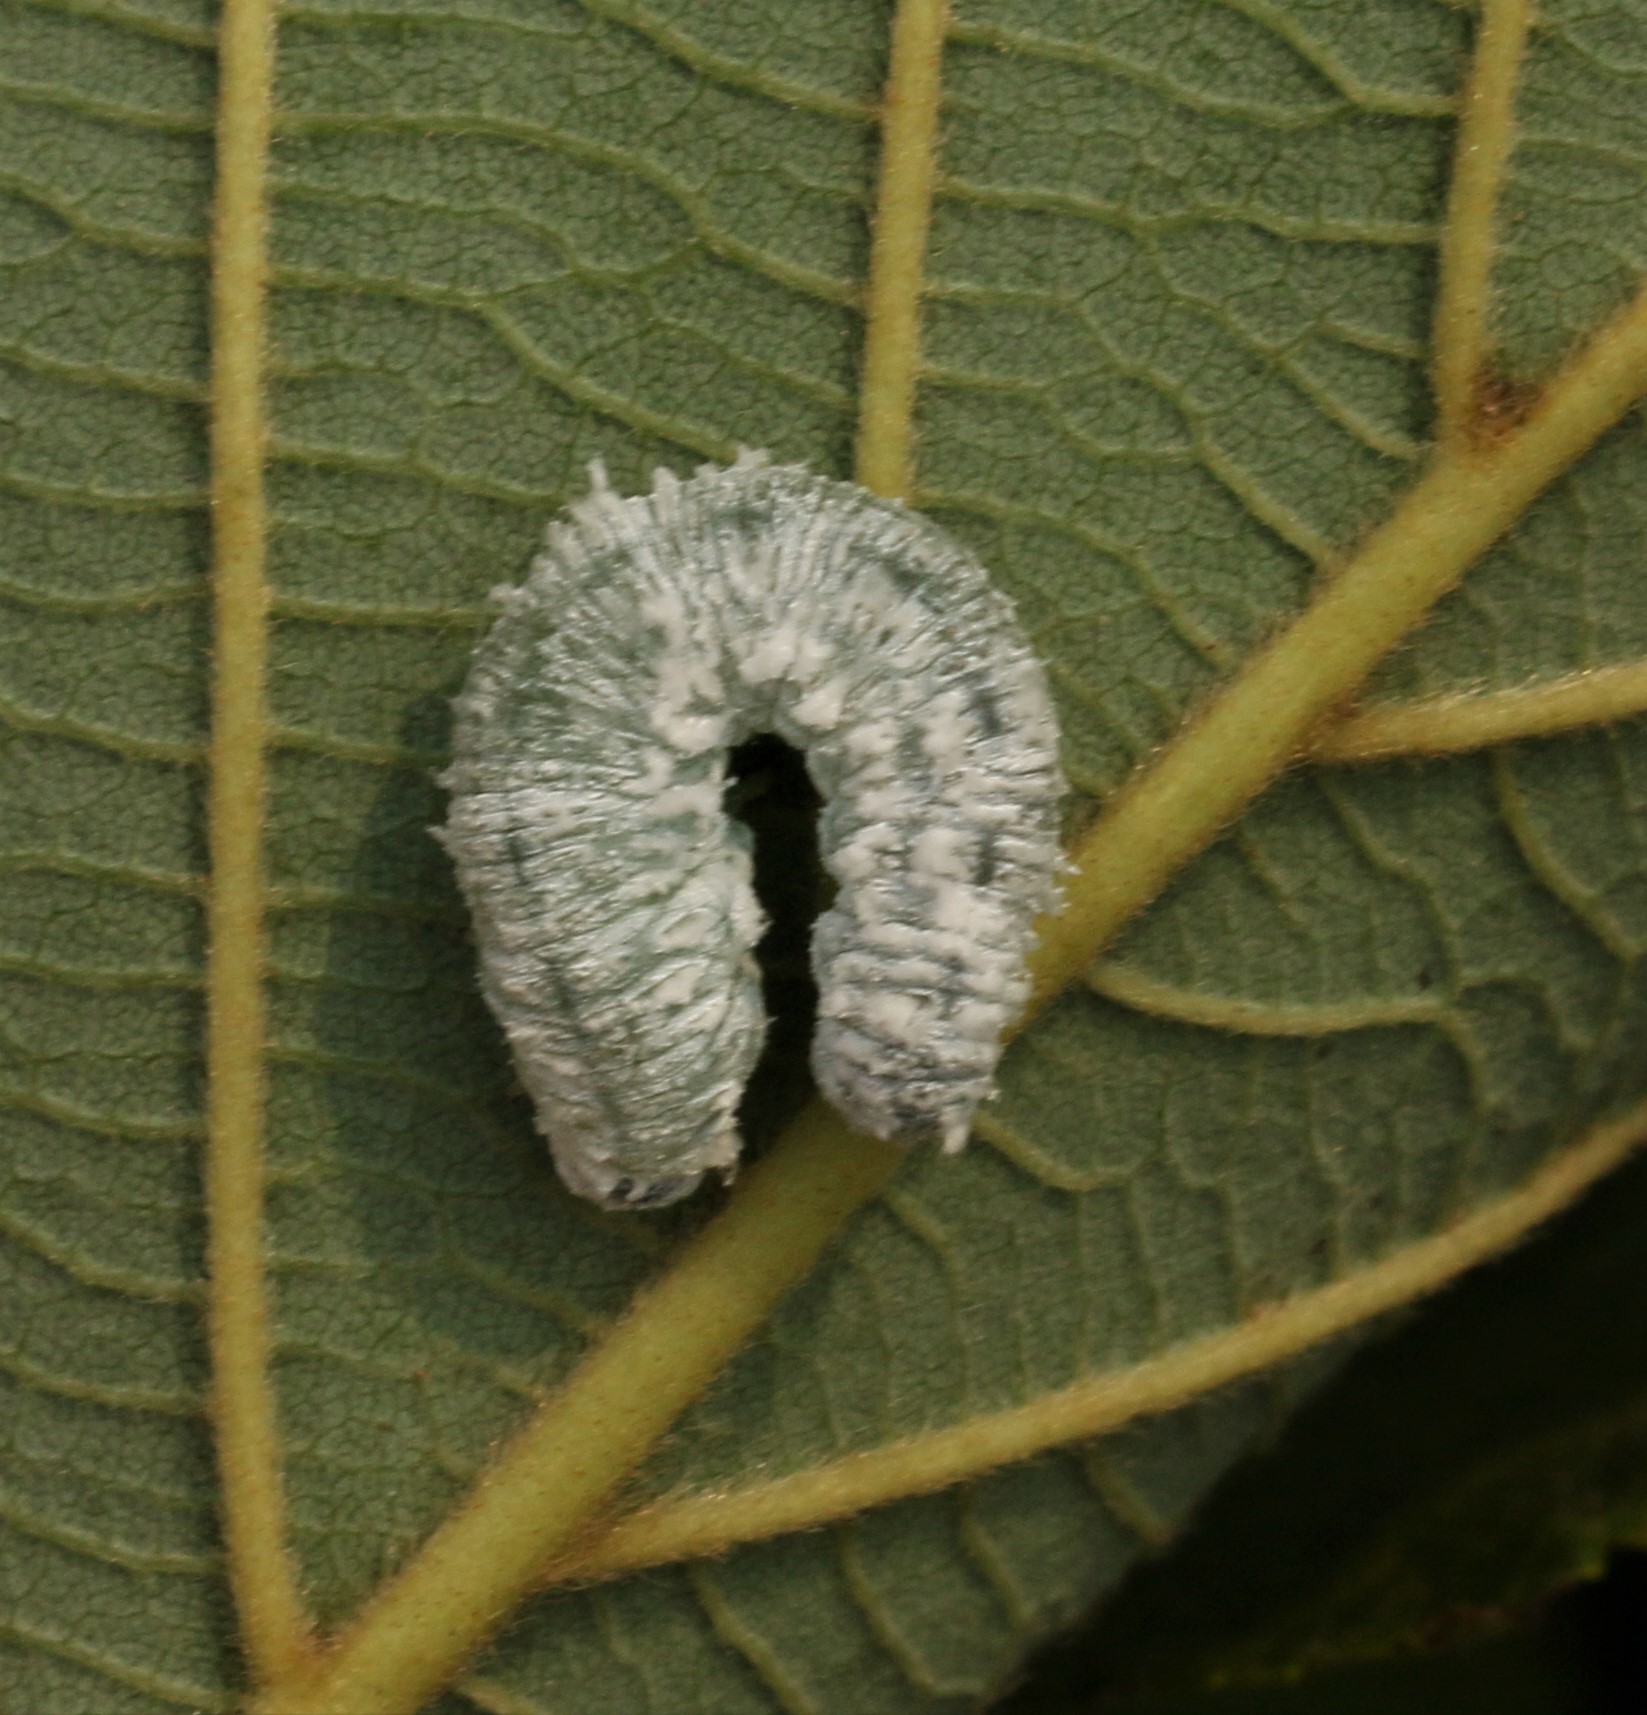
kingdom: Animalia
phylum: Arthropoda
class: Insecta
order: Hymenoptera
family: Tenthredinidae
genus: Eriocampa
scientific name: Eriocampa ovata
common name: Alder wooly sawfly
